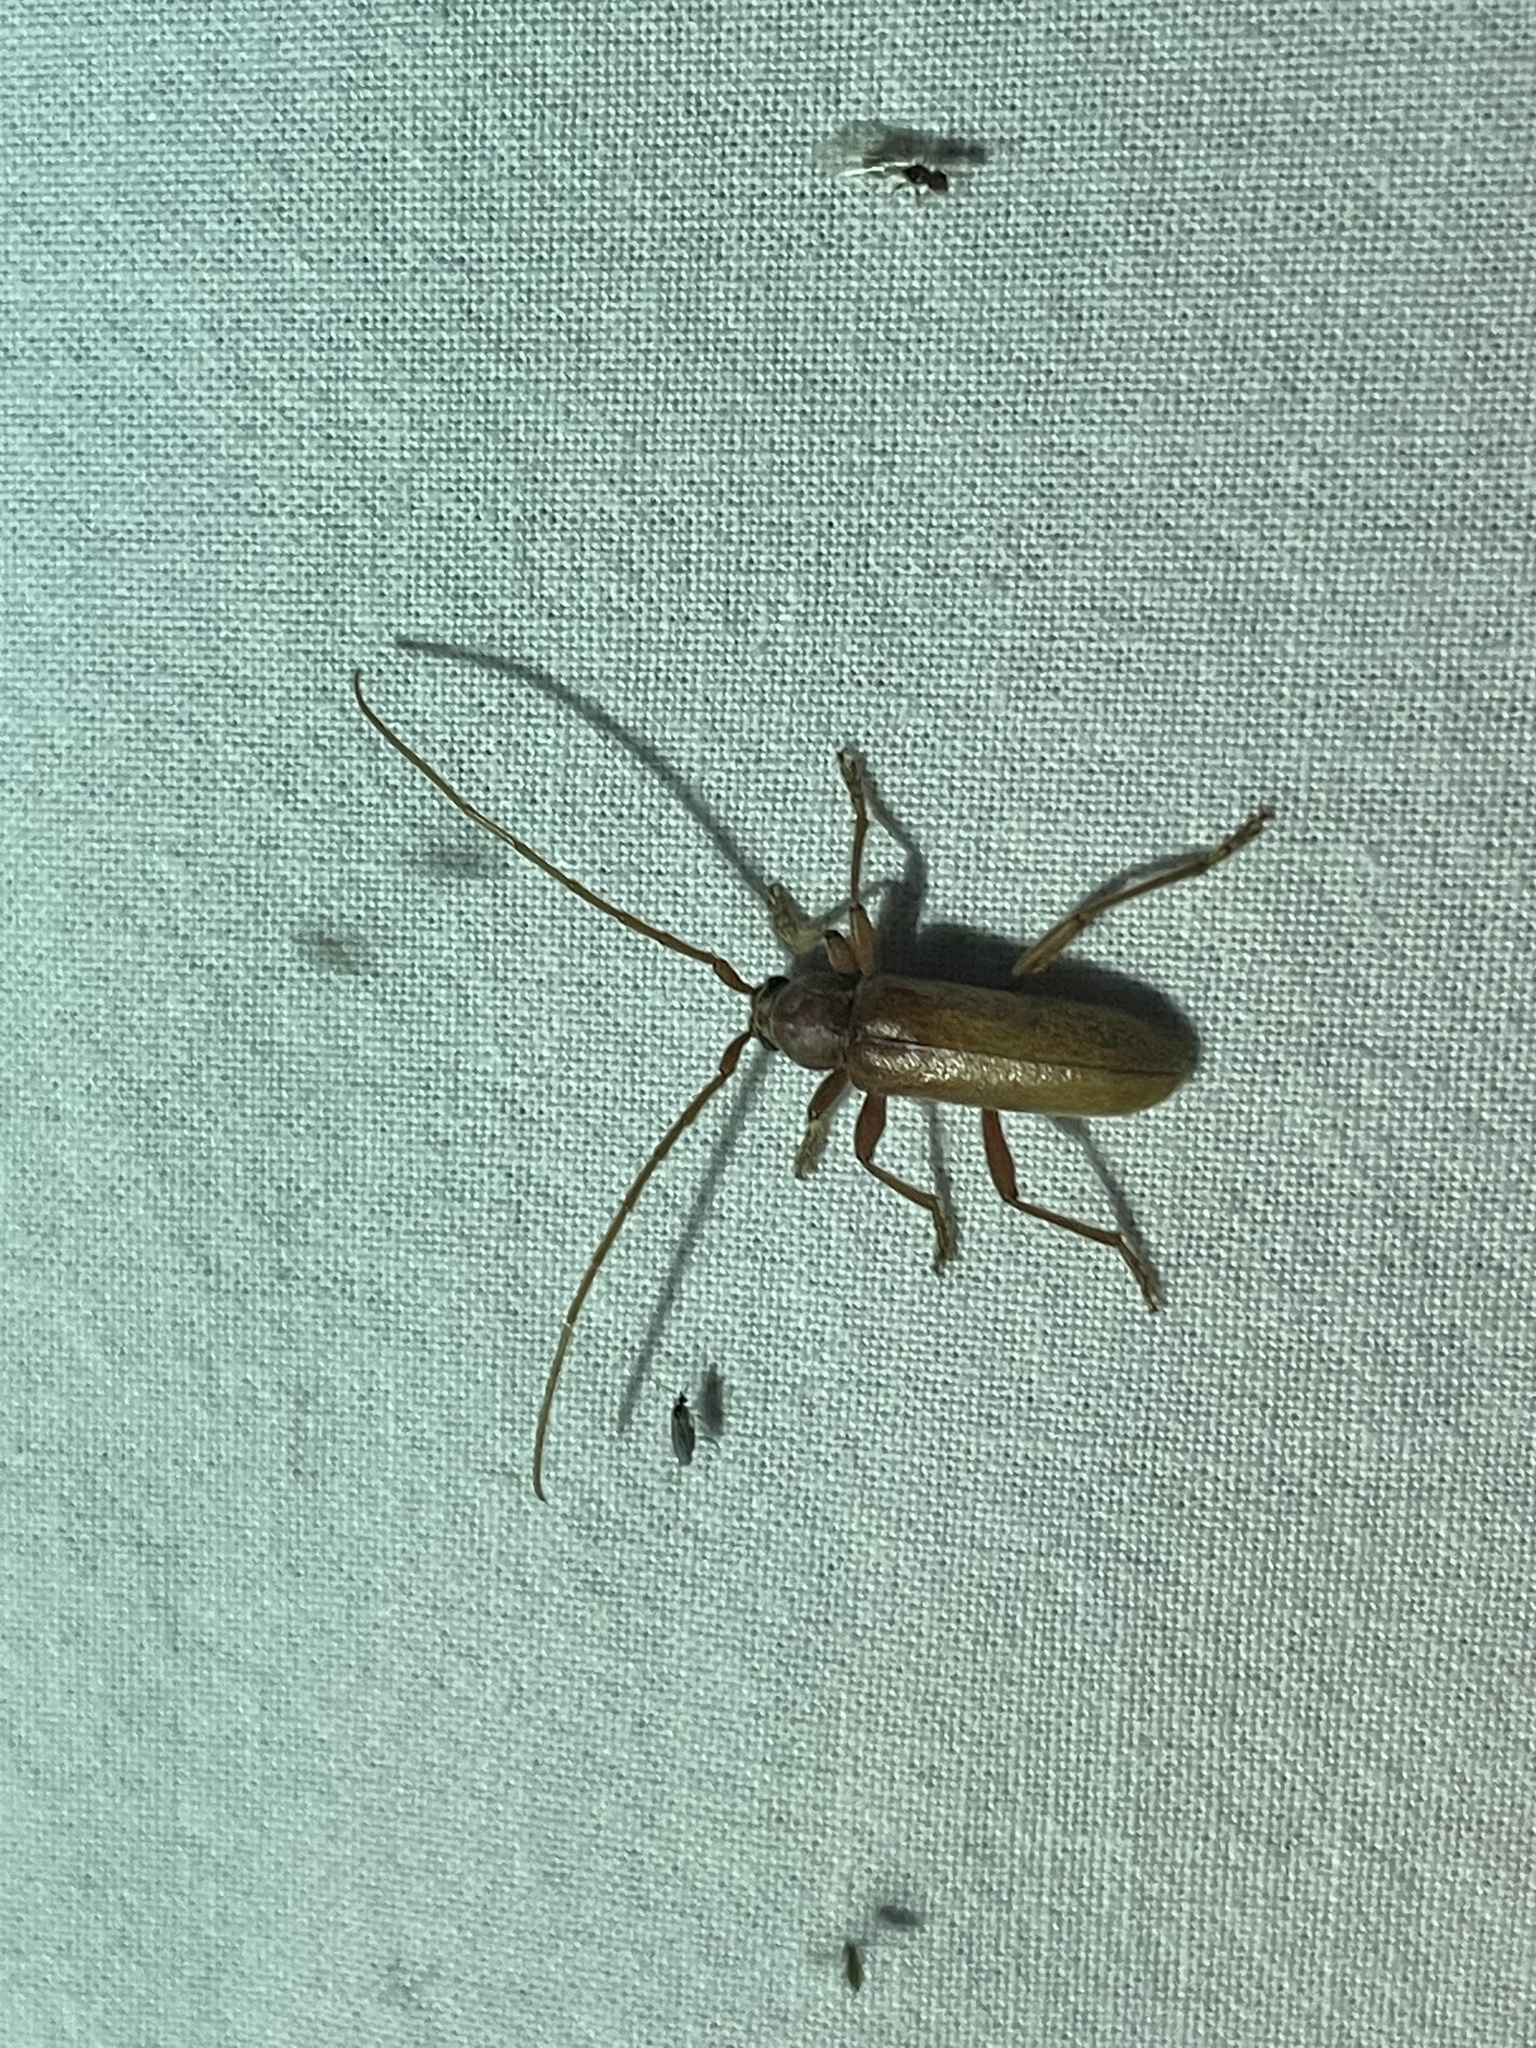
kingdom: Animalia
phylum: Arthropoda
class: Insecta
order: Coleoptera
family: Cerambycidae
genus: Hesperophanes
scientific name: Hesperophanes pubescens
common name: Longhorned wood-boring beetle
